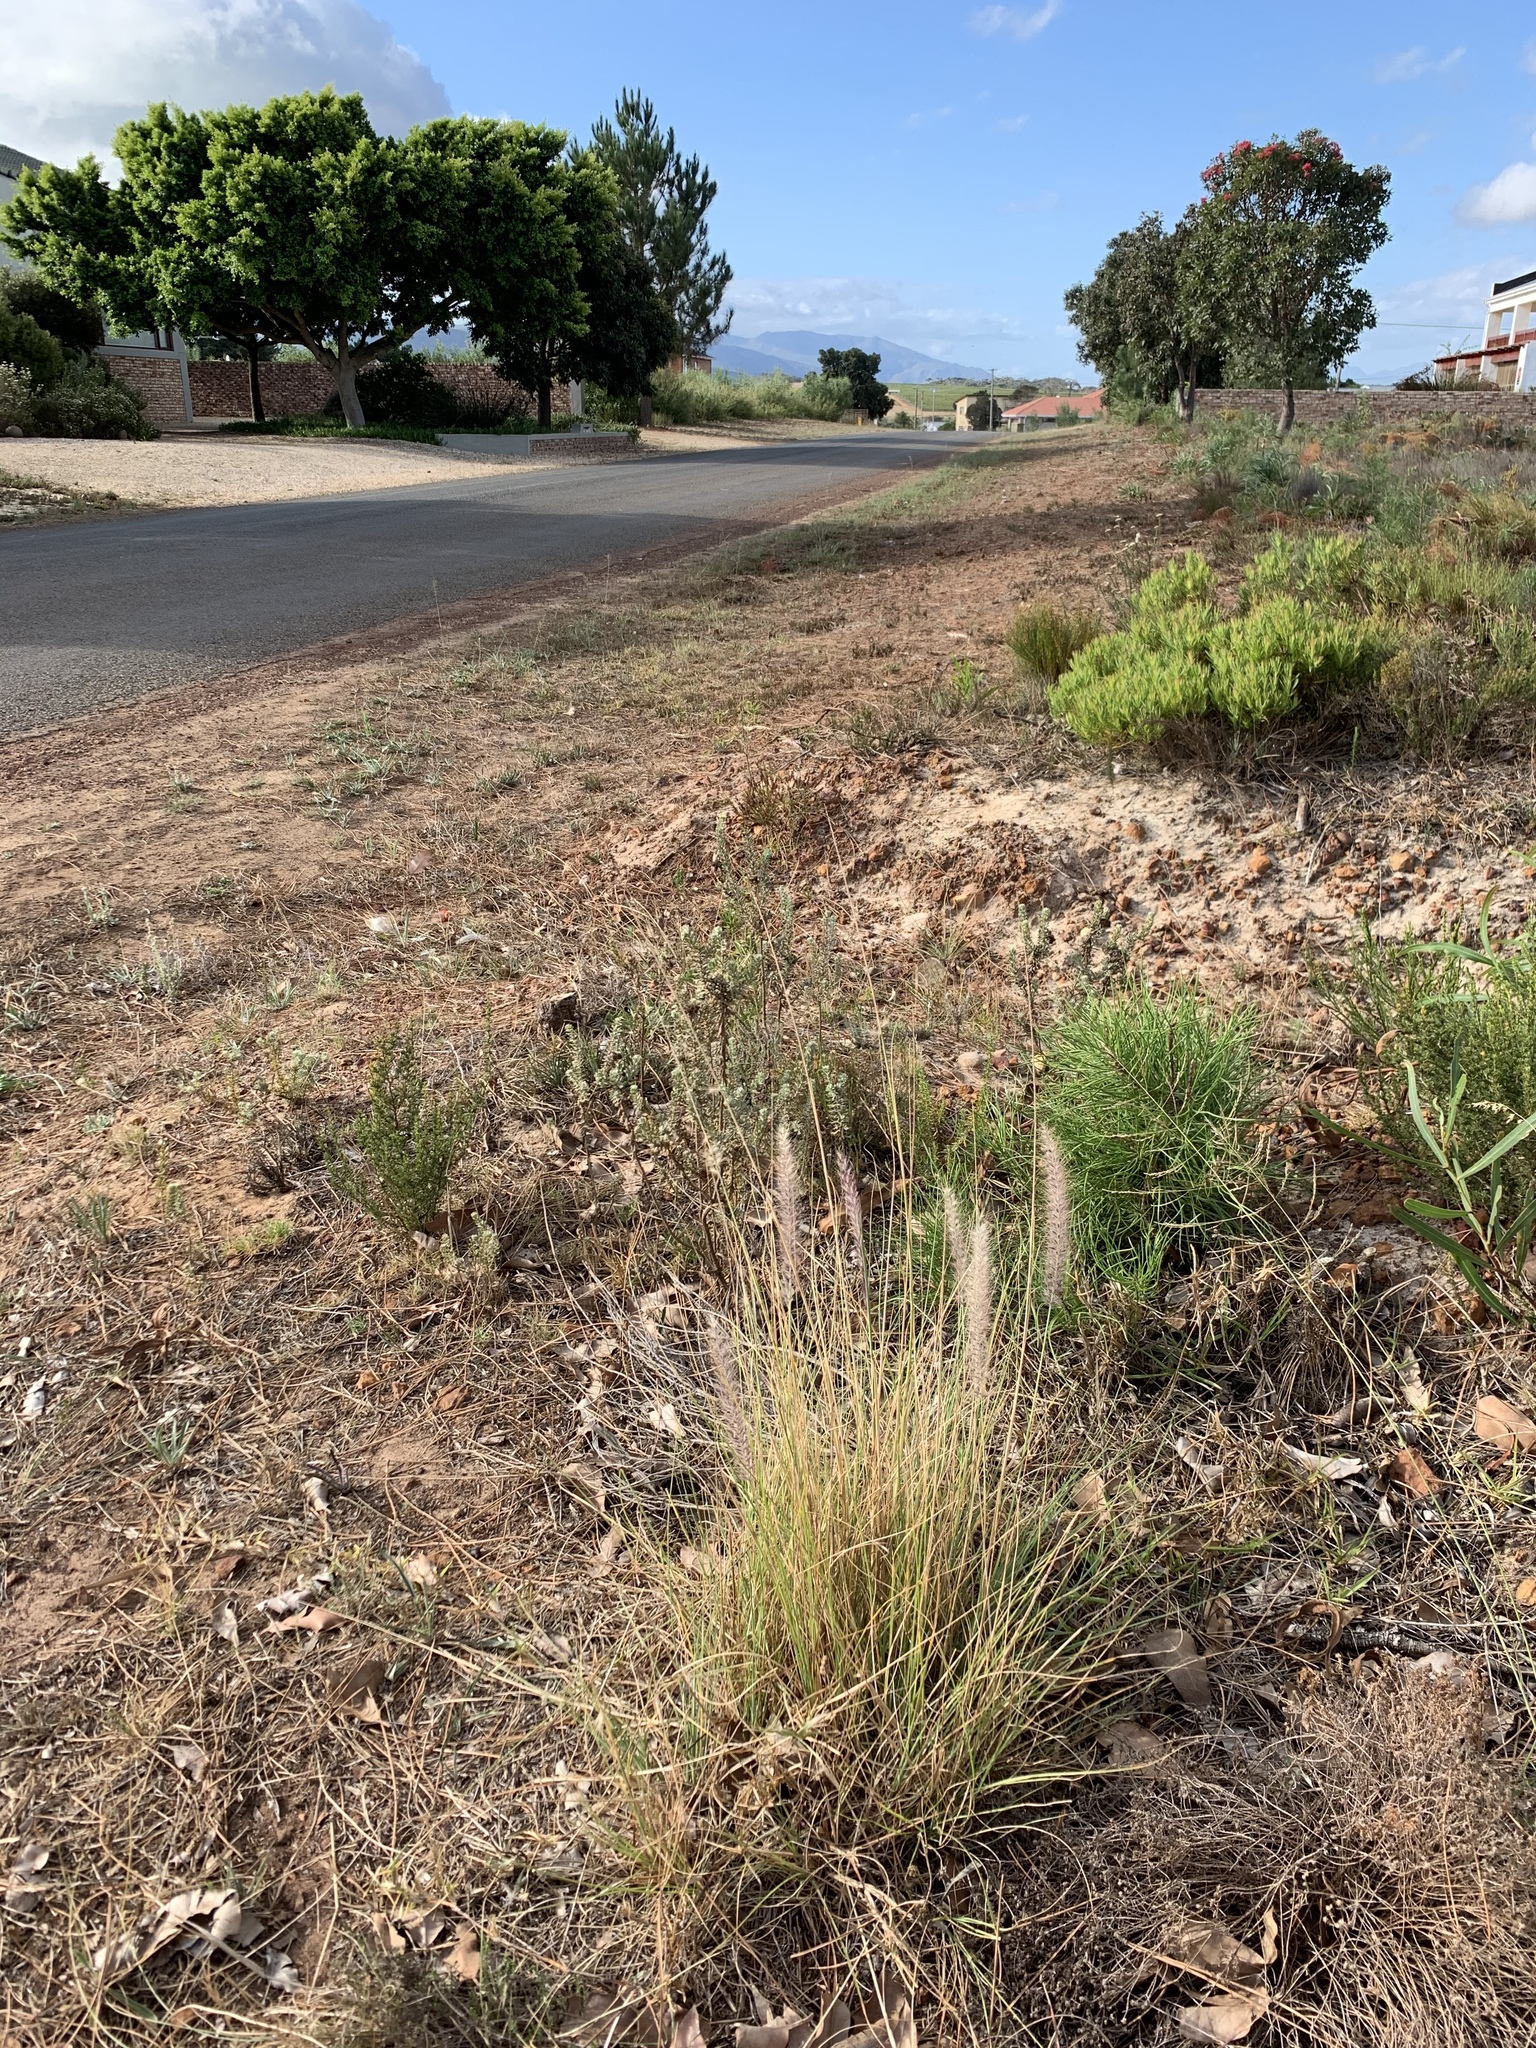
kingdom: Plantae
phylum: Tracheophyta
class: Liliopsida
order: Poales
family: Poaceae
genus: Cenchrus
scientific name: Cenchrus setaceus
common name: Crimson fountaingrass
